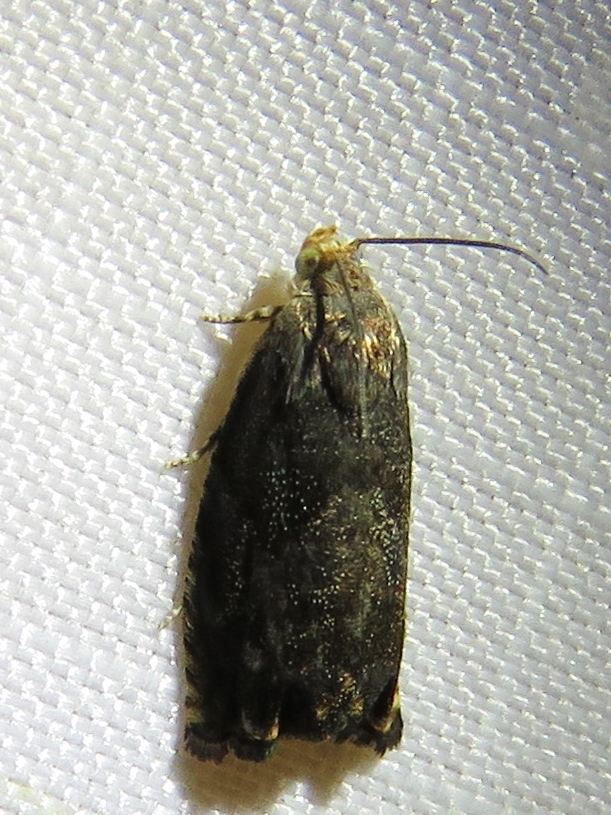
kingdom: Animalia
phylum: Arthropoda
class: Insecta
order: Lepidoptera
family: Tortricidae
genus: Cydia
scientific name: Cydia caryana
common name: Hickory shuckworm moth
